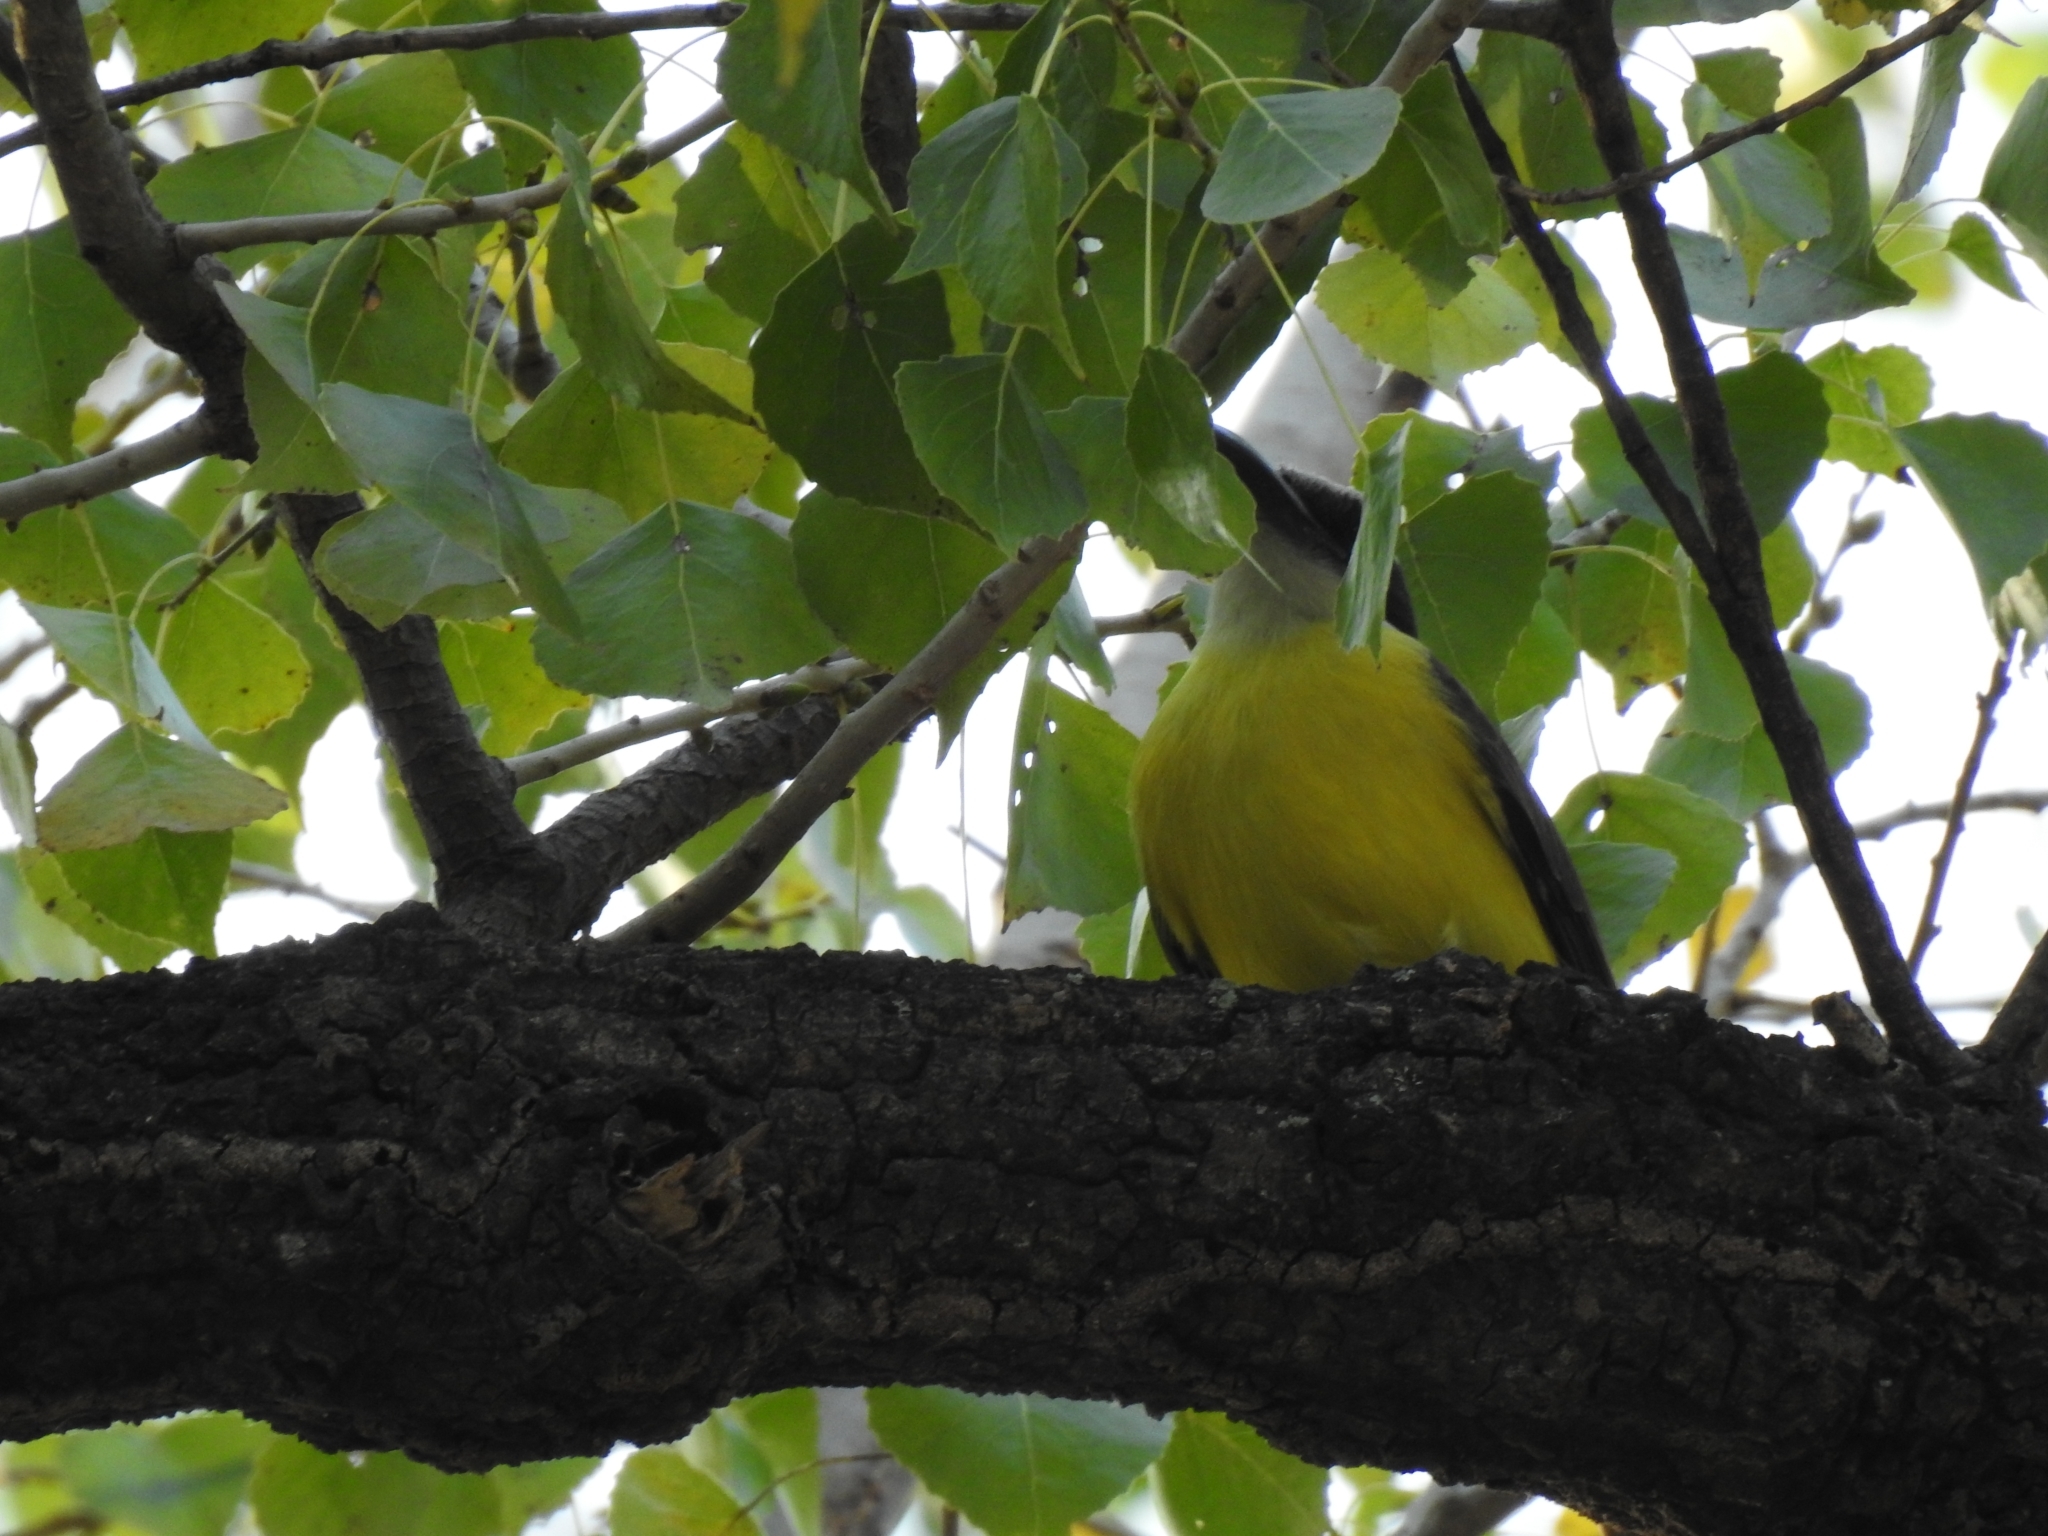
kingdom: Animalia
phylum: Chordata
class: Aves
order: Passeriformes
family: Tyrannidae
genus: Megarynchus
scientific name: Megarynchus pitangua
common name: Boat-billed flycatcher
